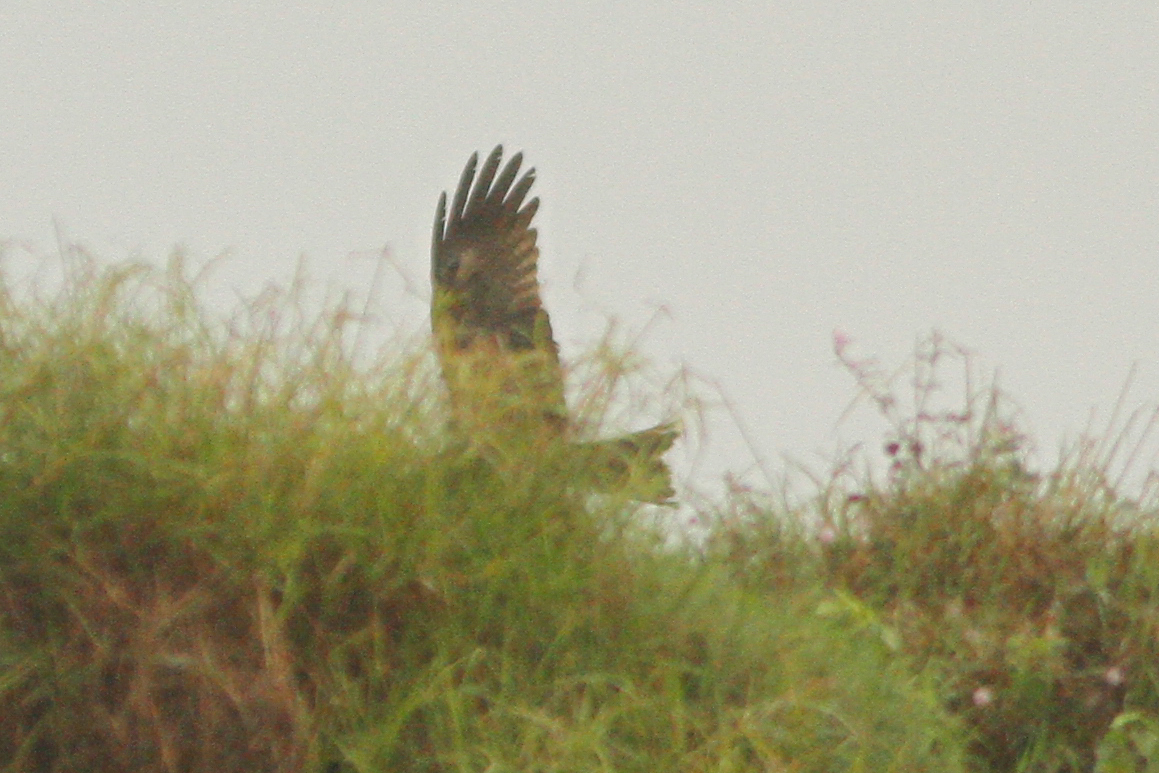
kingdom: Animalia
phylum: Chordata
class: Aves
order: Accipitriformes
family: Accipitridae
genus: Milvus
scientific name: Milvus migrans
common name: Black kite
